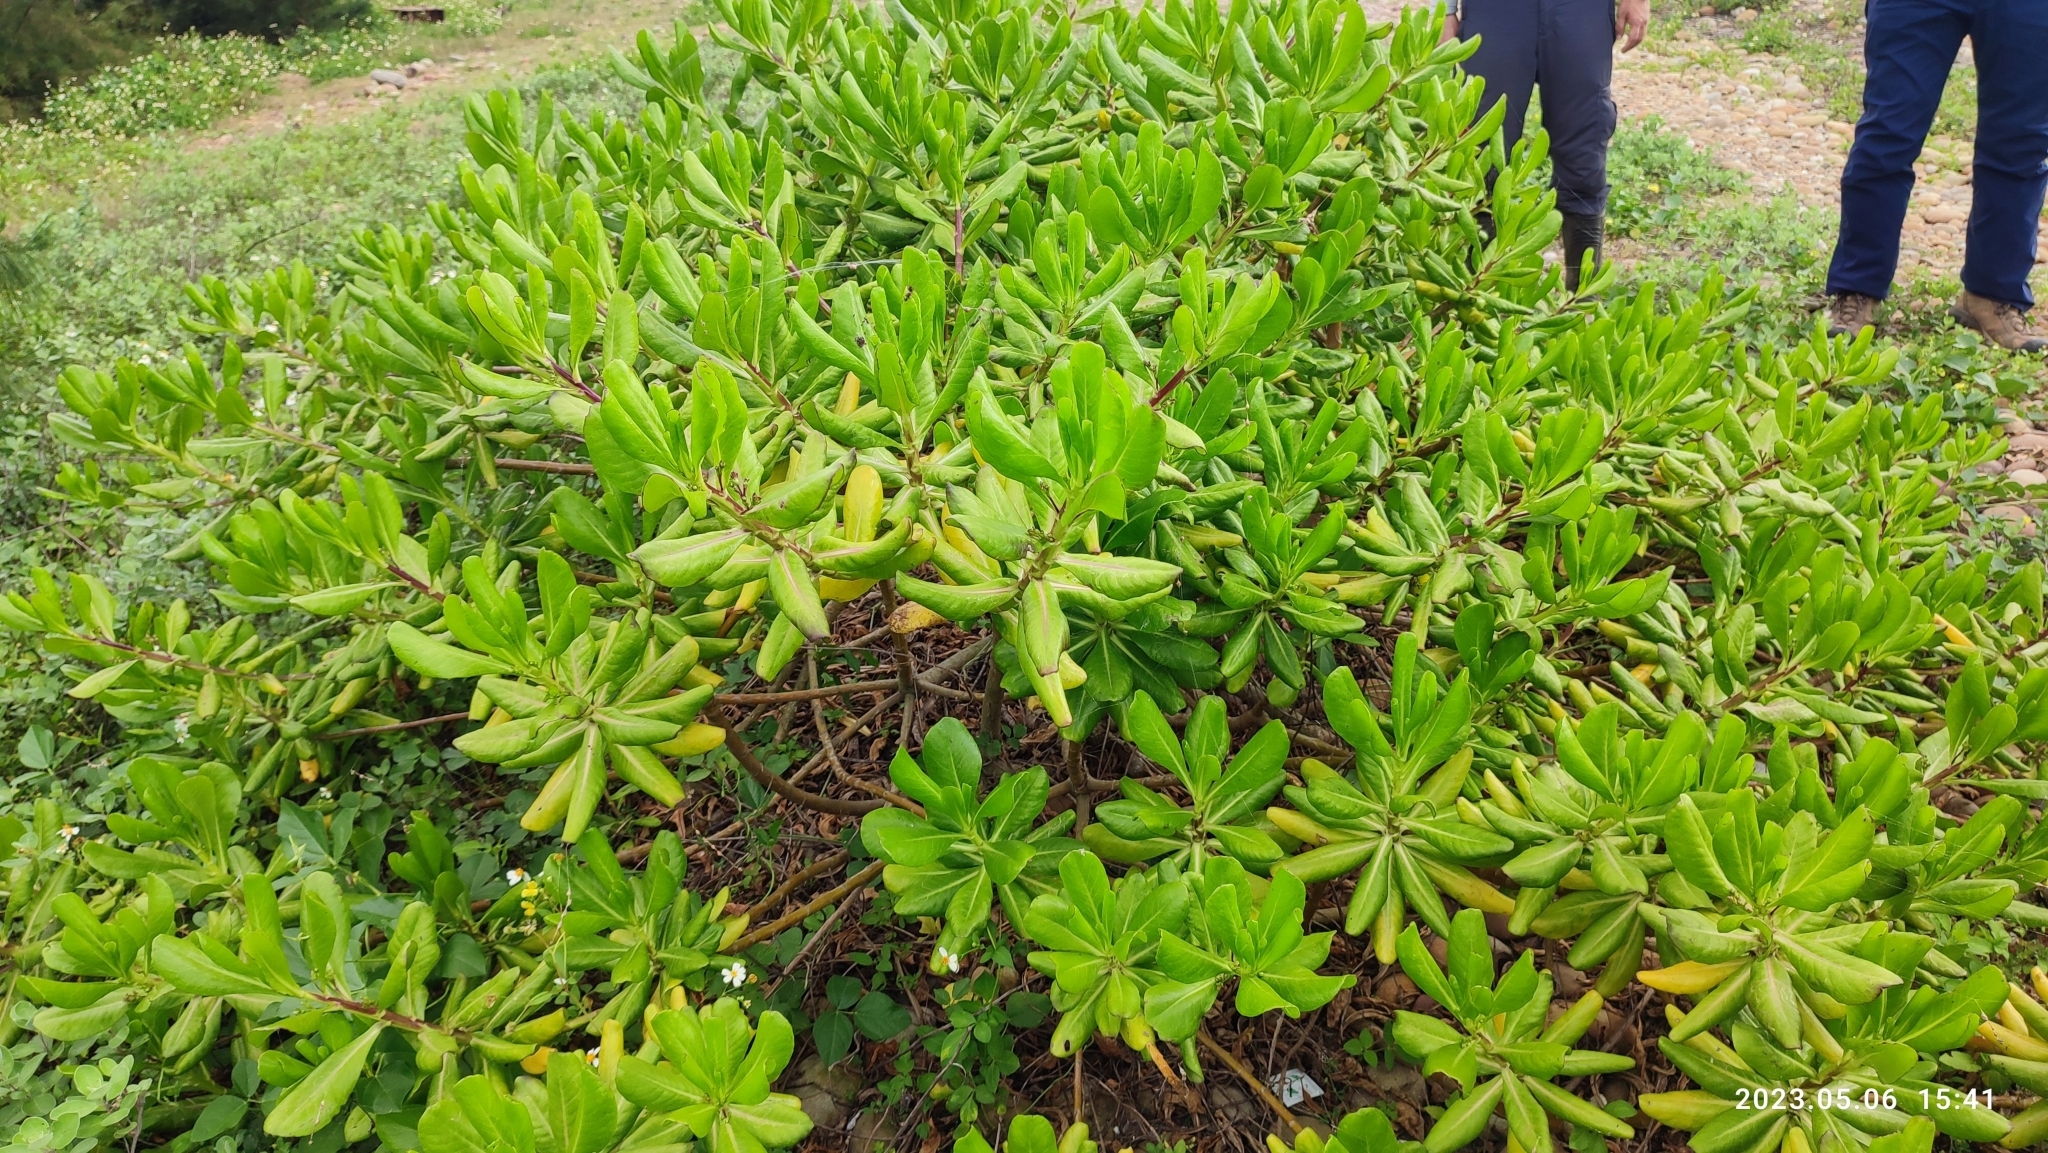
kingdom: Plantae
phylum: Tracheophyta
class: Magnoliopsida
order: Asterales
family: Goodeniaceae
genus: Scaevola
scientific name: Scaevola taccada
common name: Sea lettucetree
